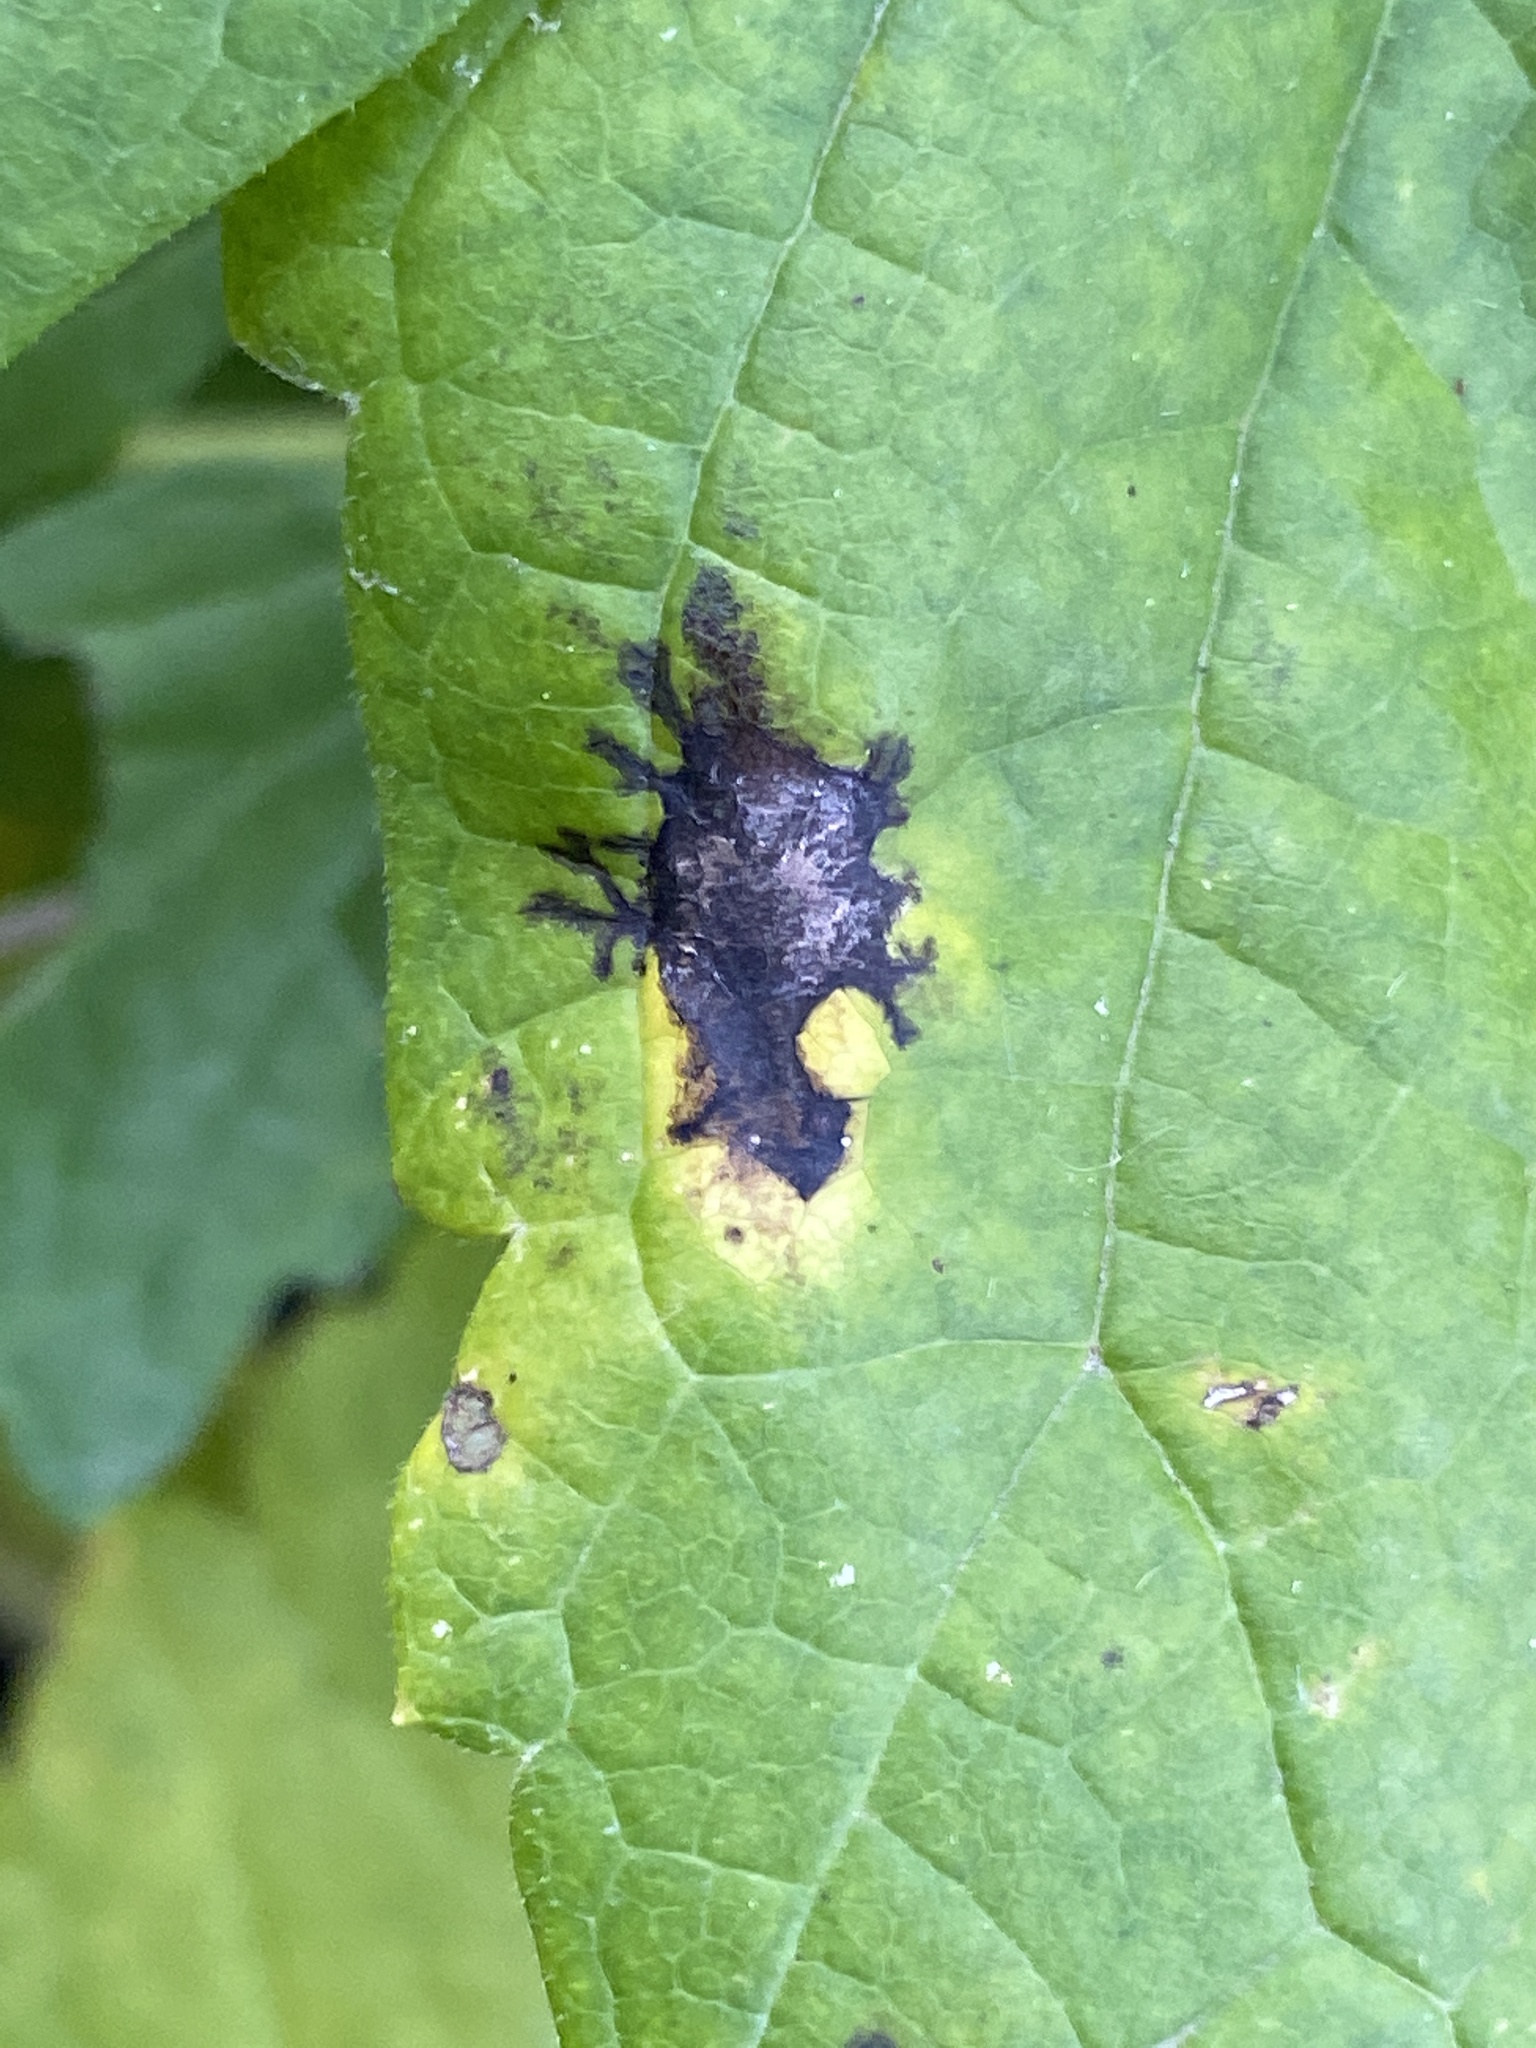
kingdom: Fungi
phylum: Ascomycota
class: Leotiomycetes
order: Rhytismatales
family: Rhytismataceae
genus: Rhytisma
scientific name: Rhytisma americanum
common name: American tar spot
